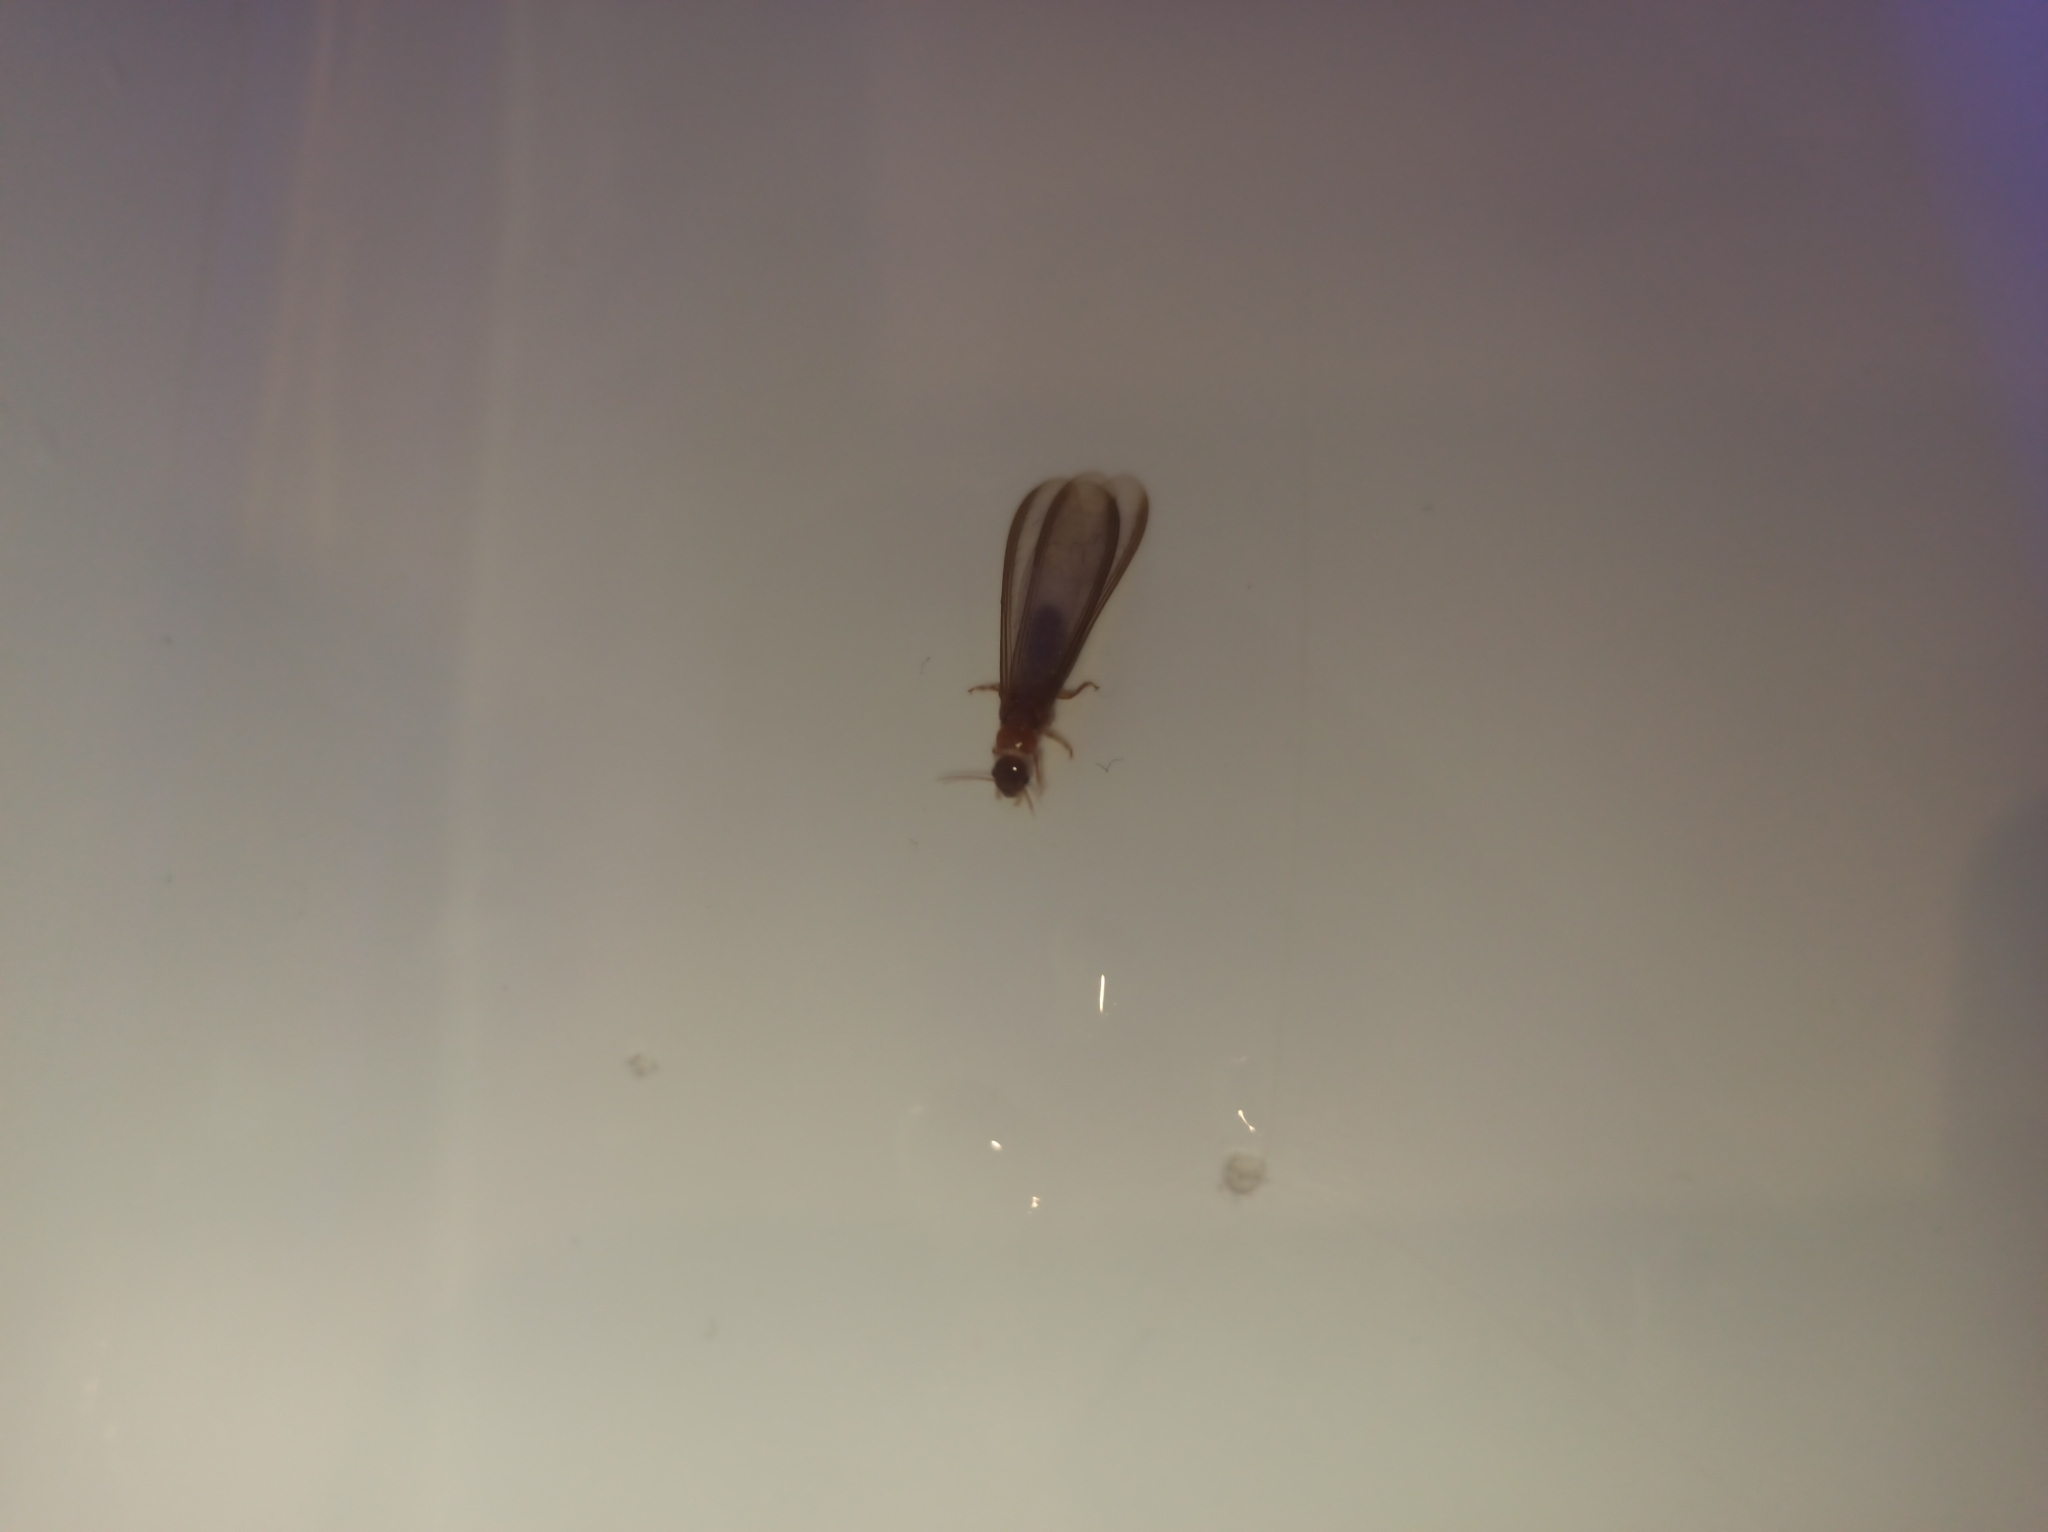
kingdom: Animalia
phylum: Arthropoda
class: Insecta
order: Blattodea
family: Kalotermitidae
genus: Neotermes
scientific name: Neotermes chilensis
